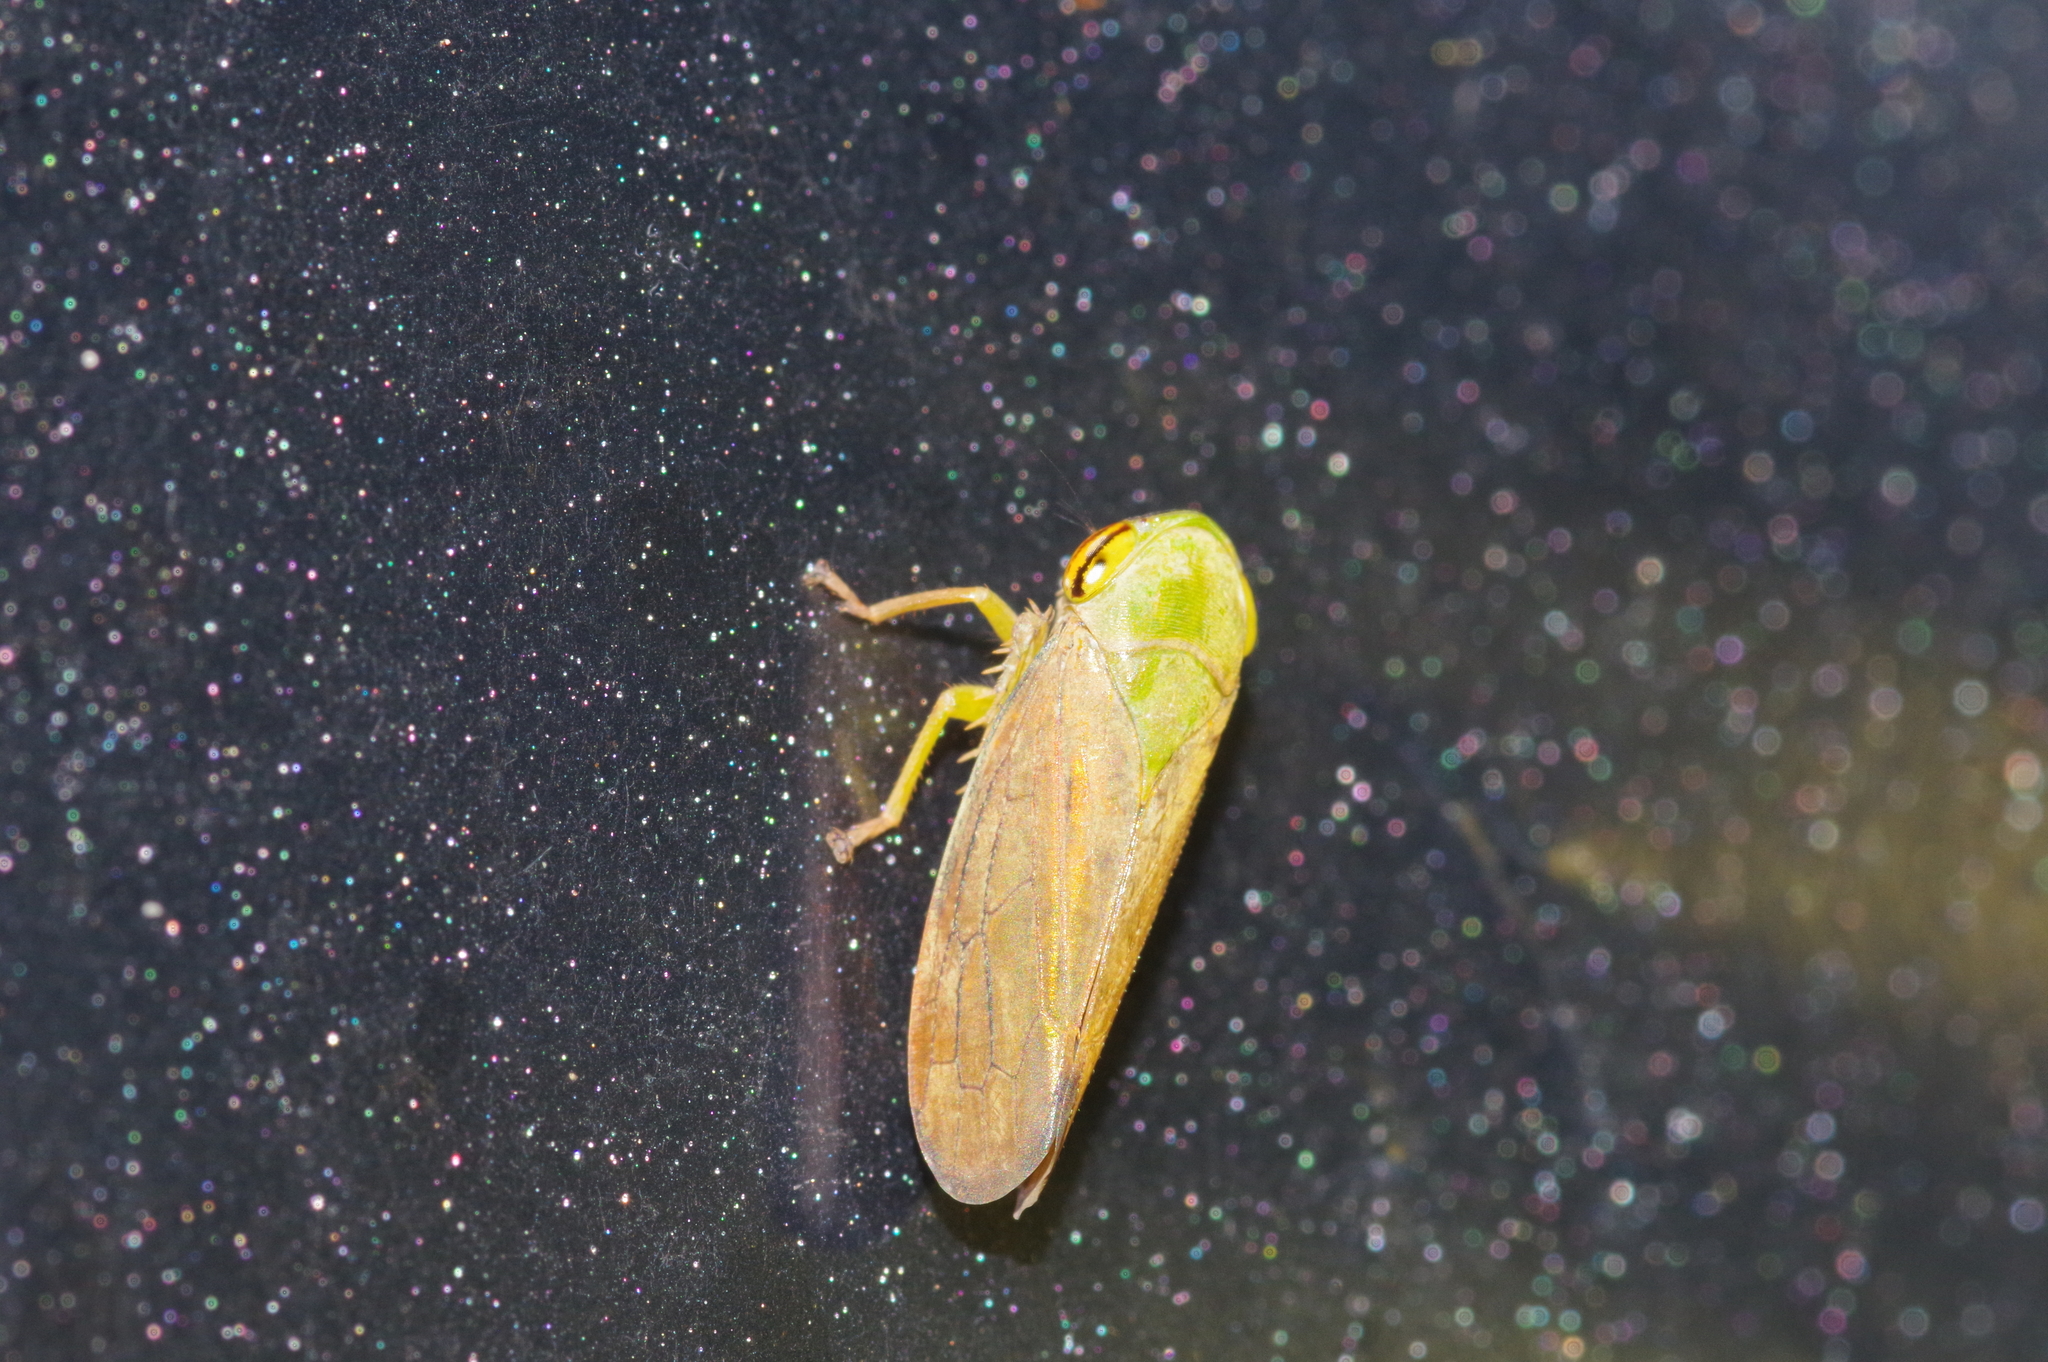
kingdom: Animalia
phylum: Arthropoda
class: Insecta
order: Hemiptera
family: Cicadellidae
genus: Tartessus
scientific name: Tartessus ferrugineus
